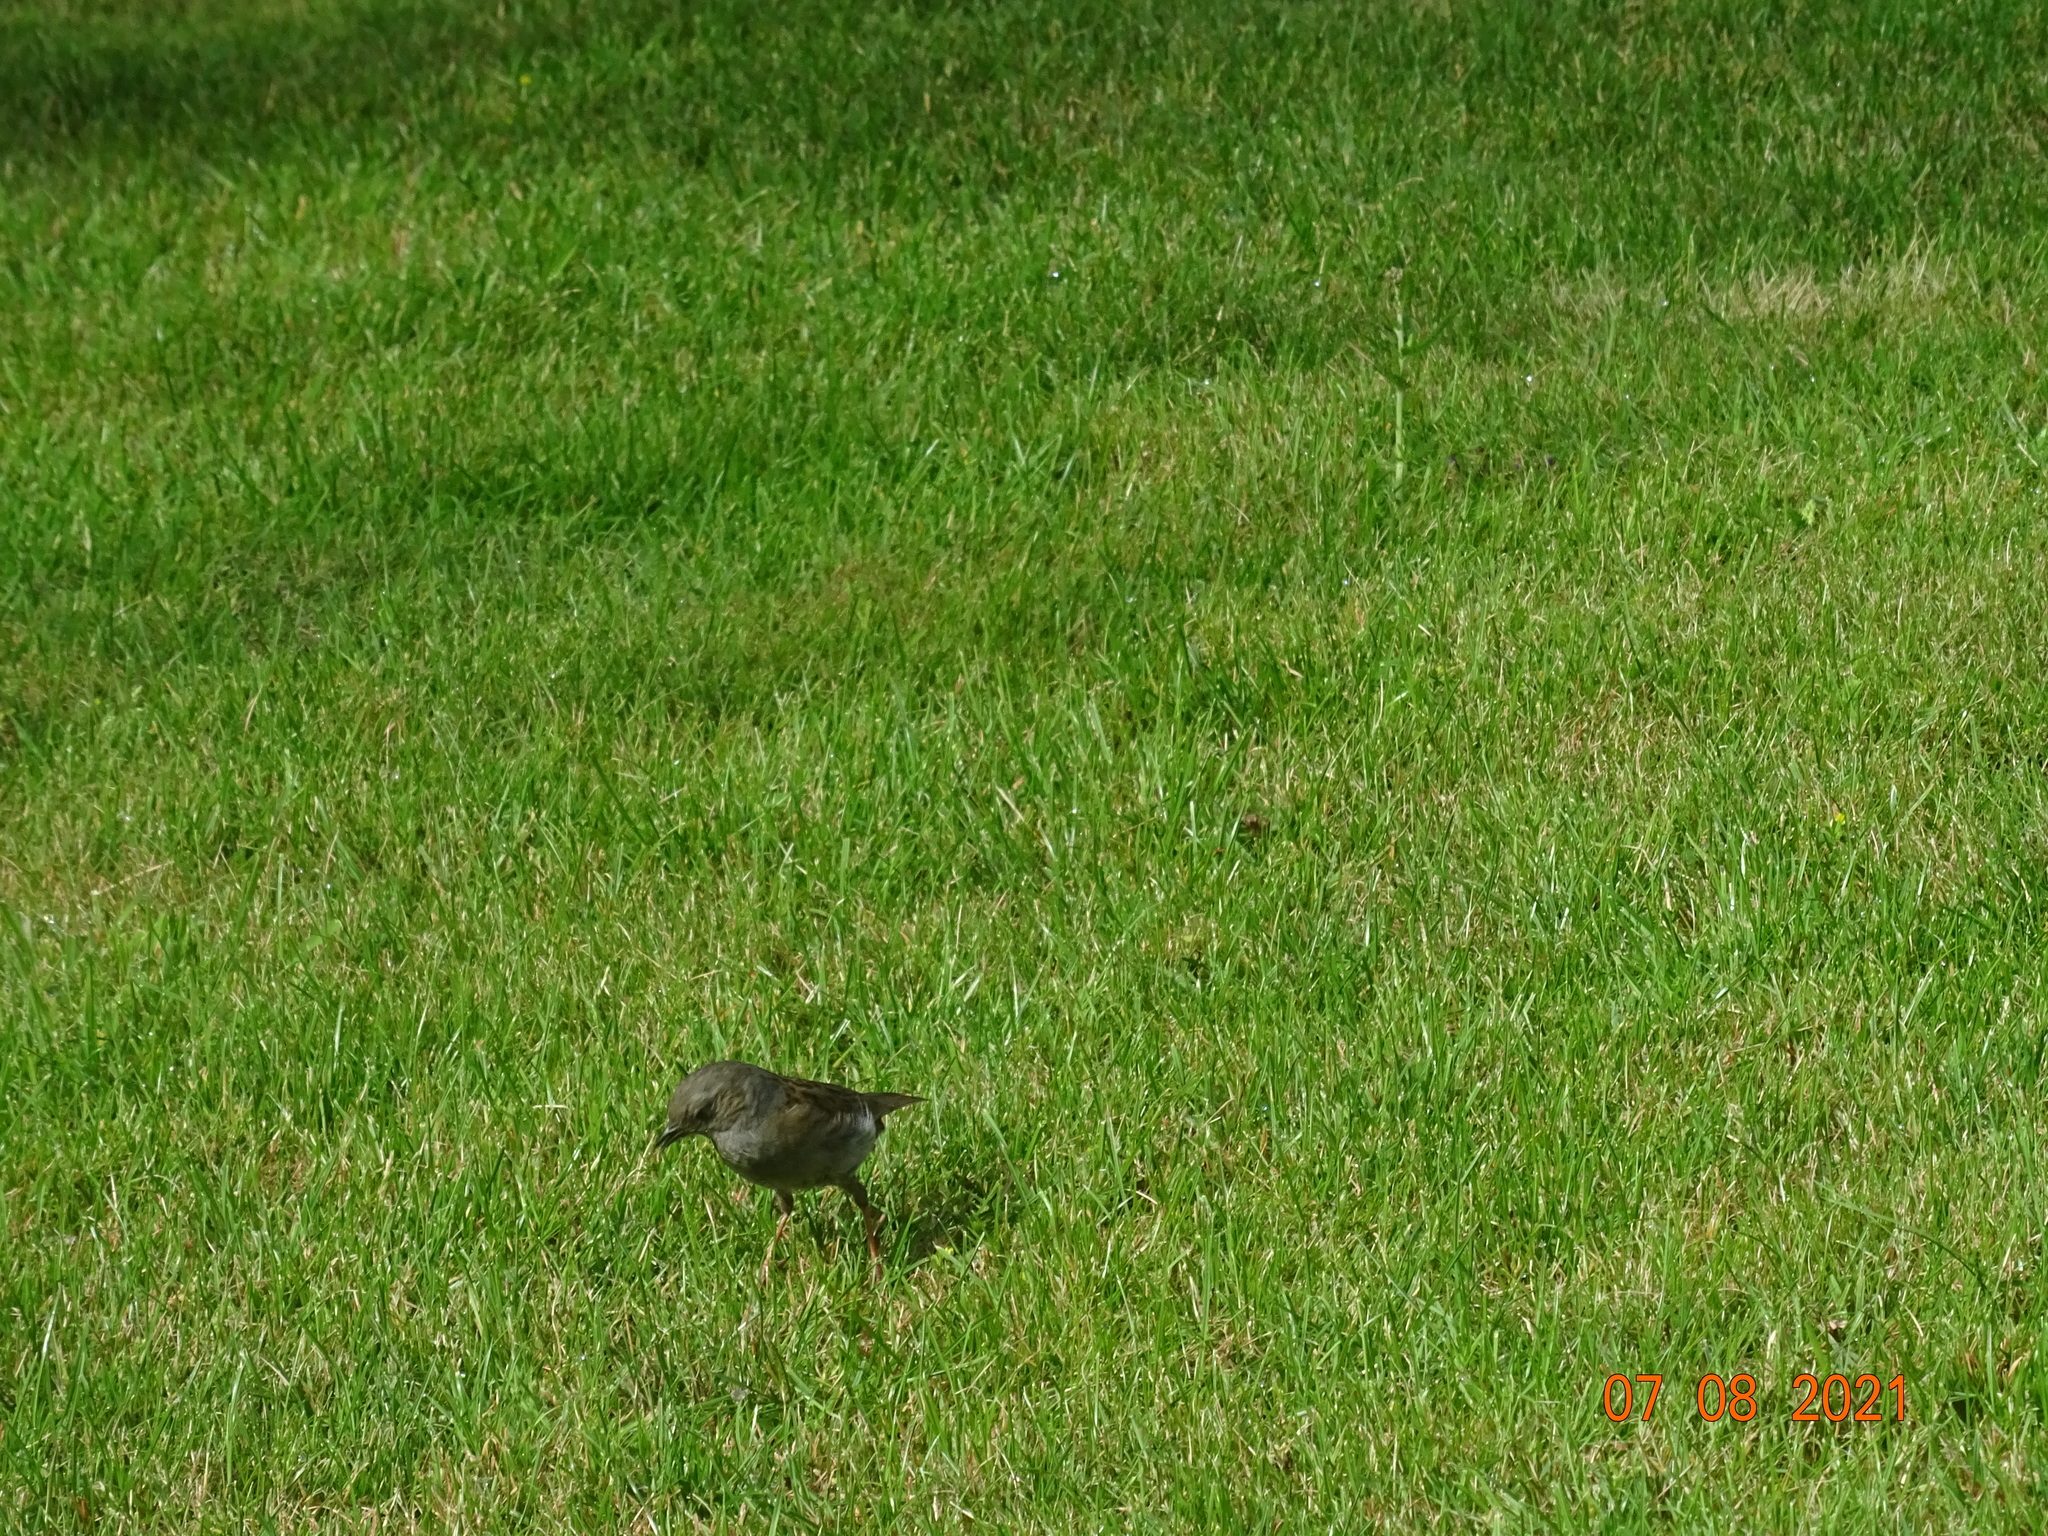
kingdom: Animalia
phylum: Chordata
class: Aves
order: Passeriformes
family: Prunellidae
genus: Prunella
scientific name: Prunella modularis
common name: Dunnock
